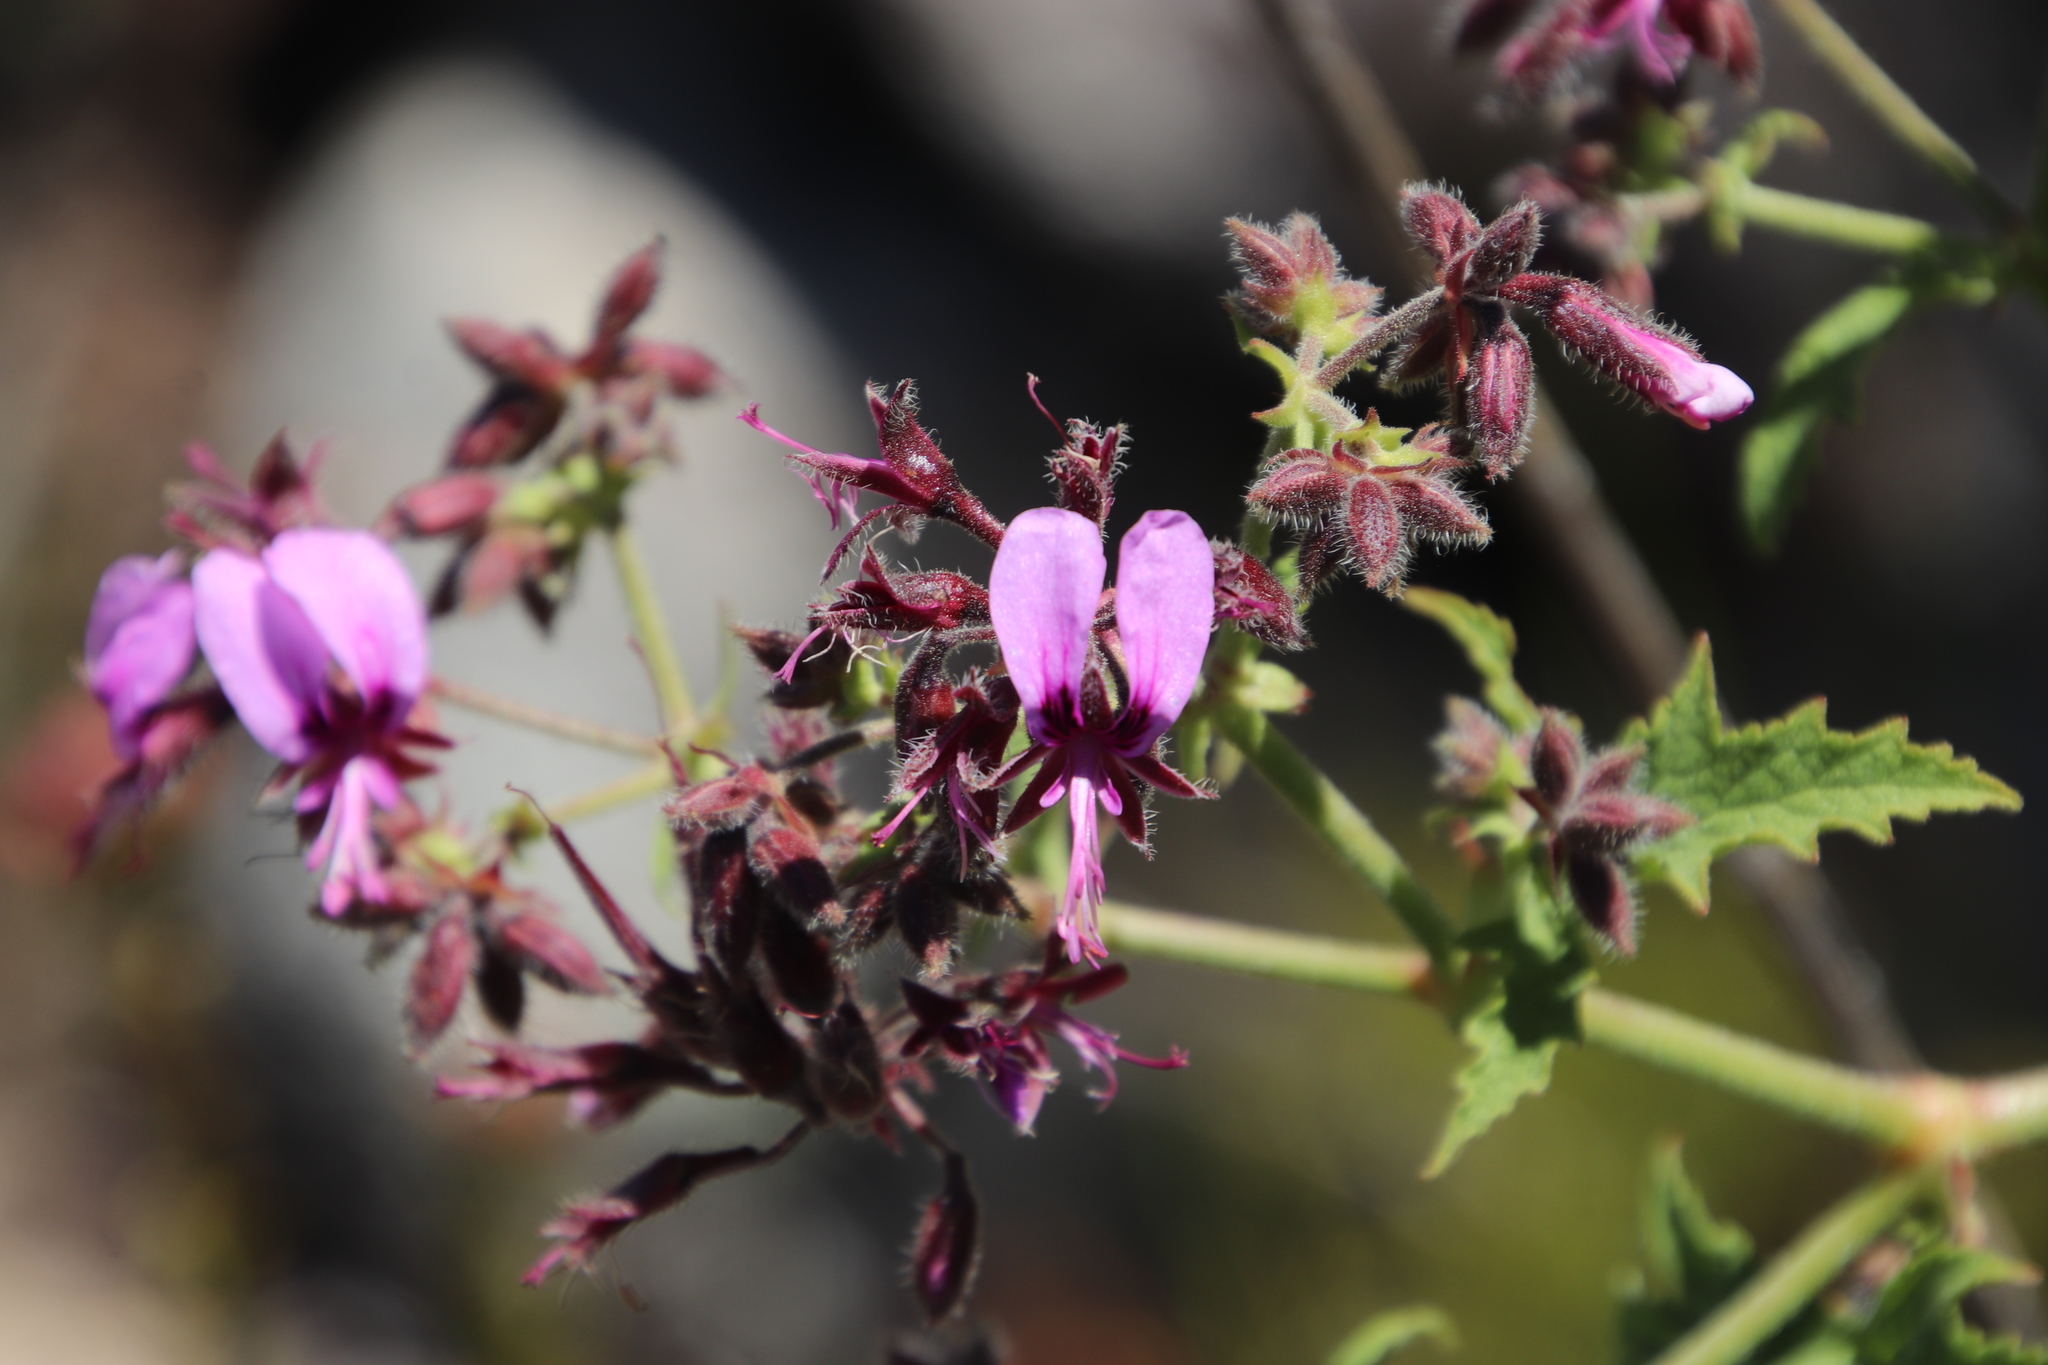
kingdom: Plantae
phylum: Tracheophyta
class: Magnoliopsida
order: Geraniales
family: Geraniaceae
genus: Pelargonium
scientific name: Pelargonium hispidum
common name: Hispid pelargonium
